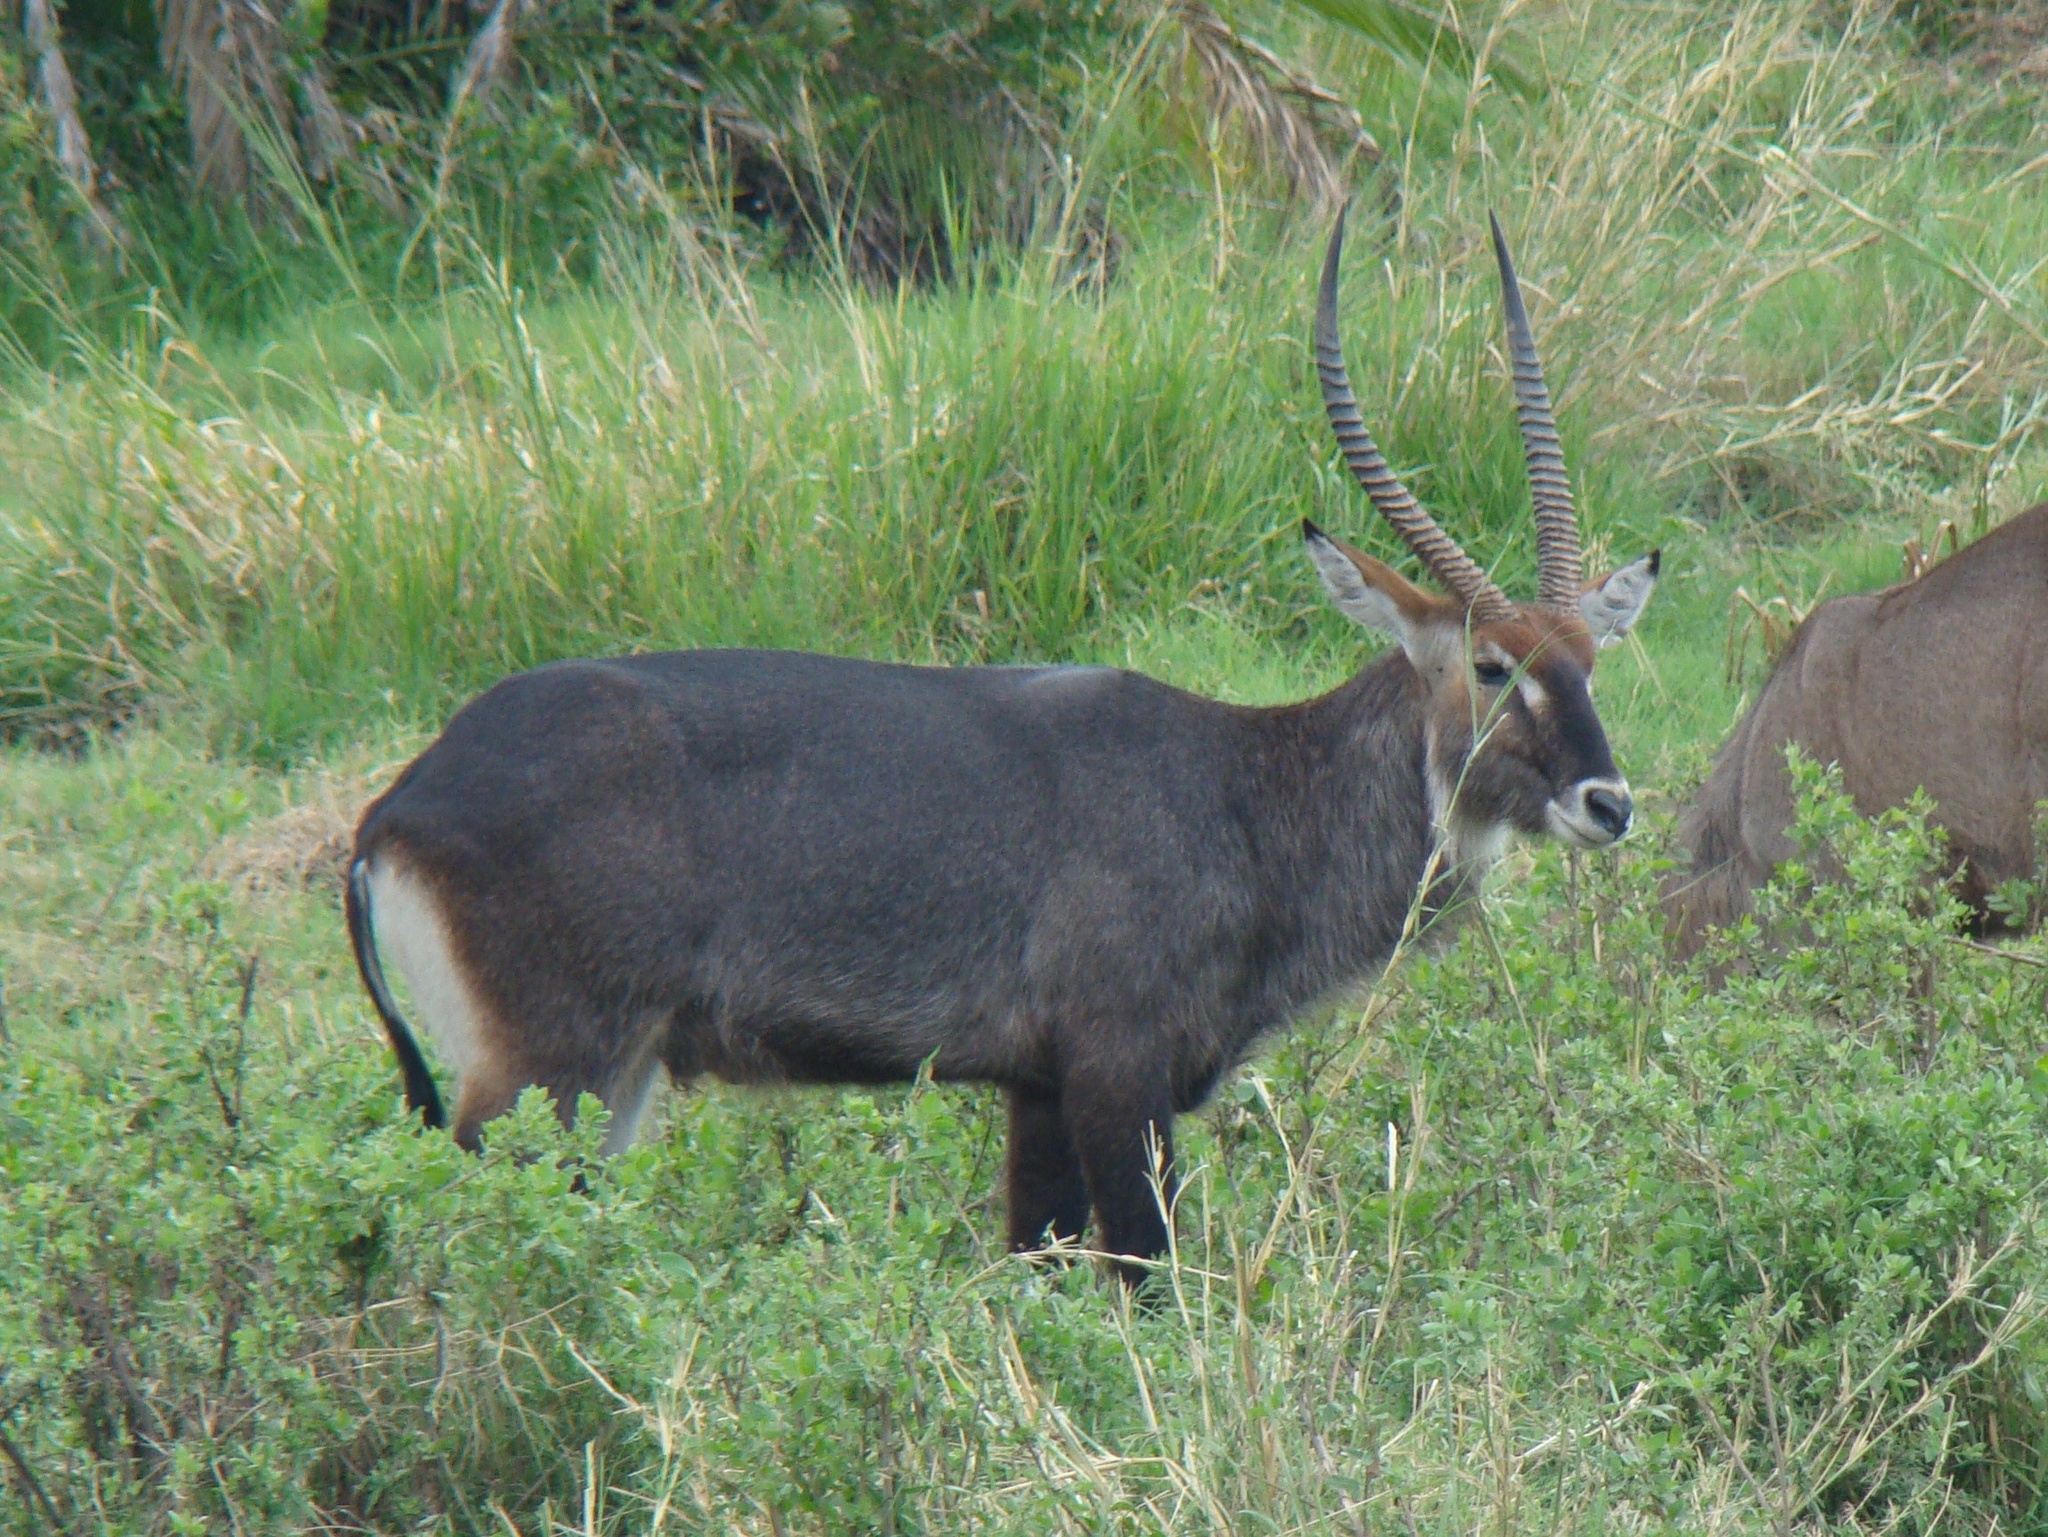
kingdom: Animalia
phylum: Chordata
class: Mammalia
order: Artiodactyla
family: Bovidae
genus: Kobus
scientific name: Kobus ellipsiprymnus
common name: Waterbuck
